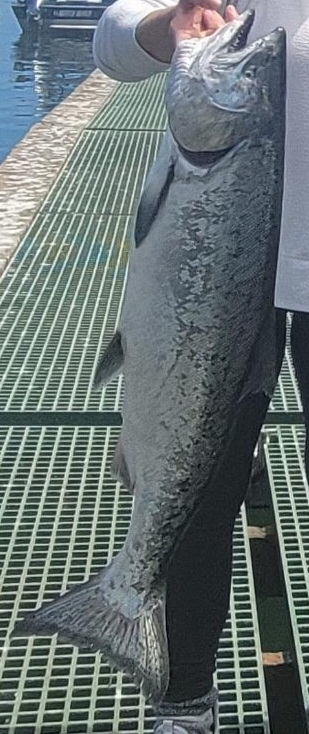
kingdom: Animalia
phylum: Chordata
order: Salmoniformes
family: Salmonidae
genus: Oncorhynchus
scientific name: Oncorhynchus tshawytscha
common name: Chinook salmon
